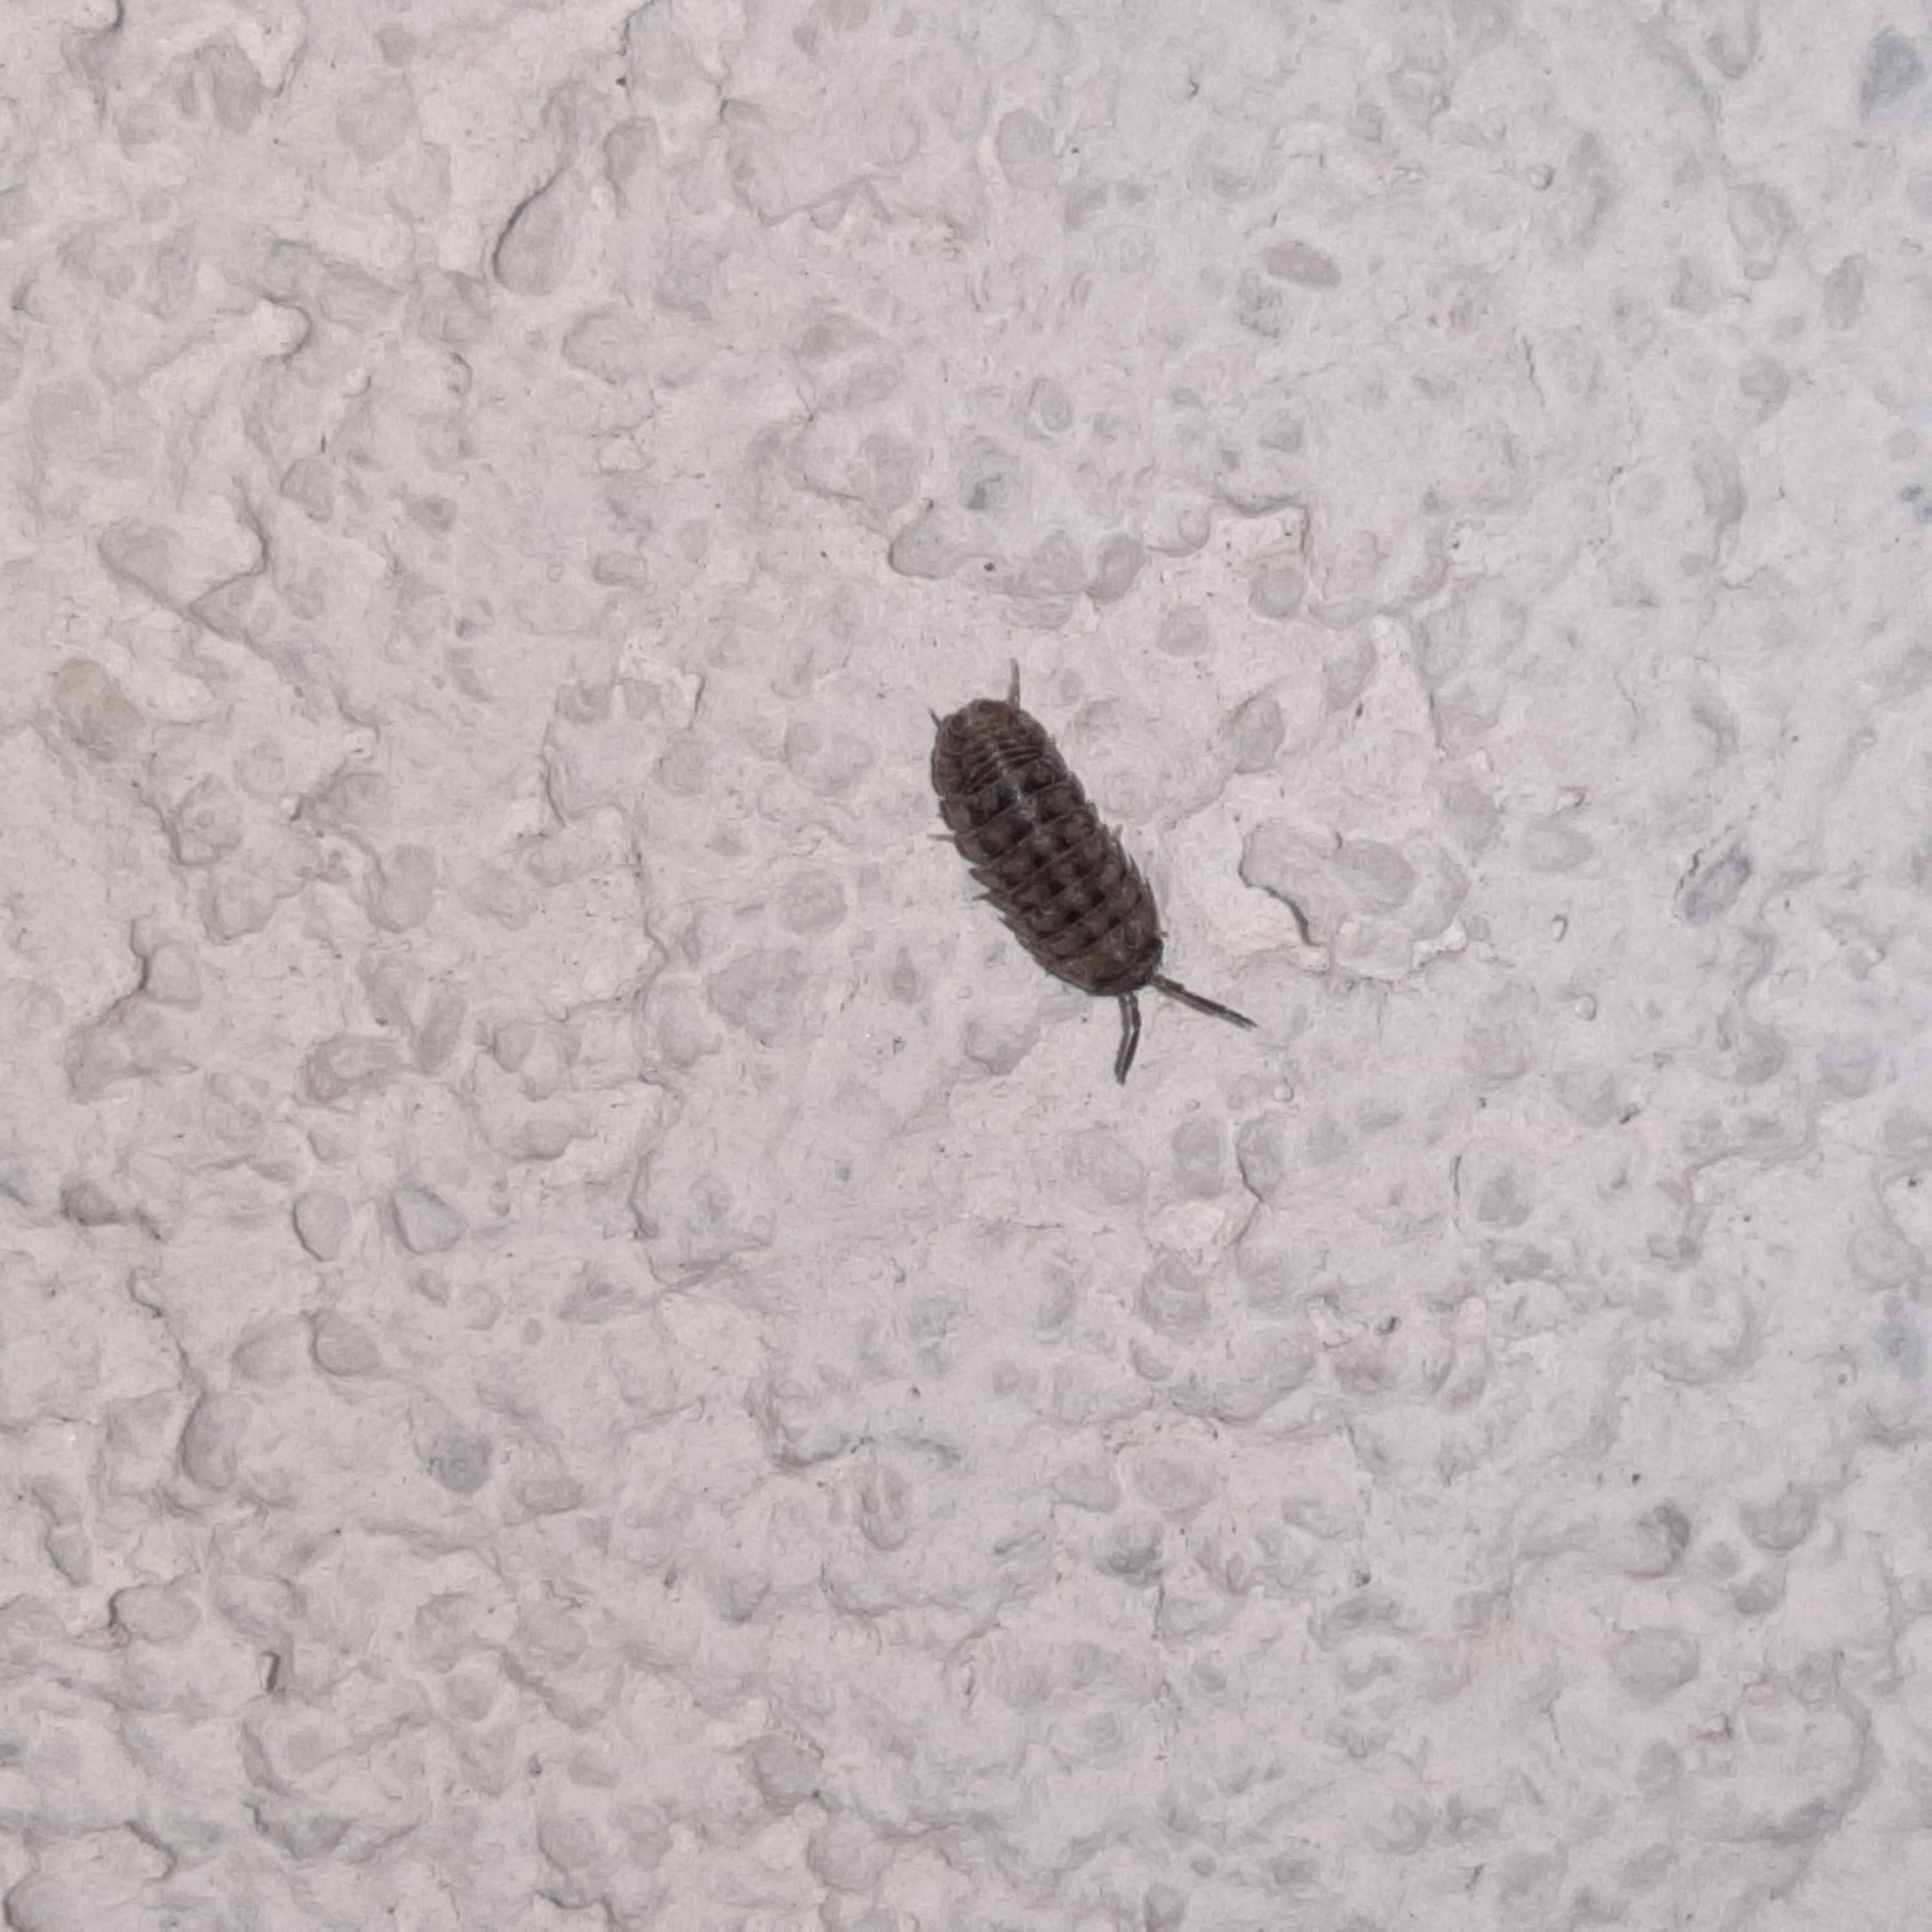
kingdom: Animalia
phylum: Arthropoda
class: Malacostraca
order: Isopoda
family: Armadillidiidae
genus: Armadillidium
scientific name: Armadillidium nasatum
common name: Isopod
